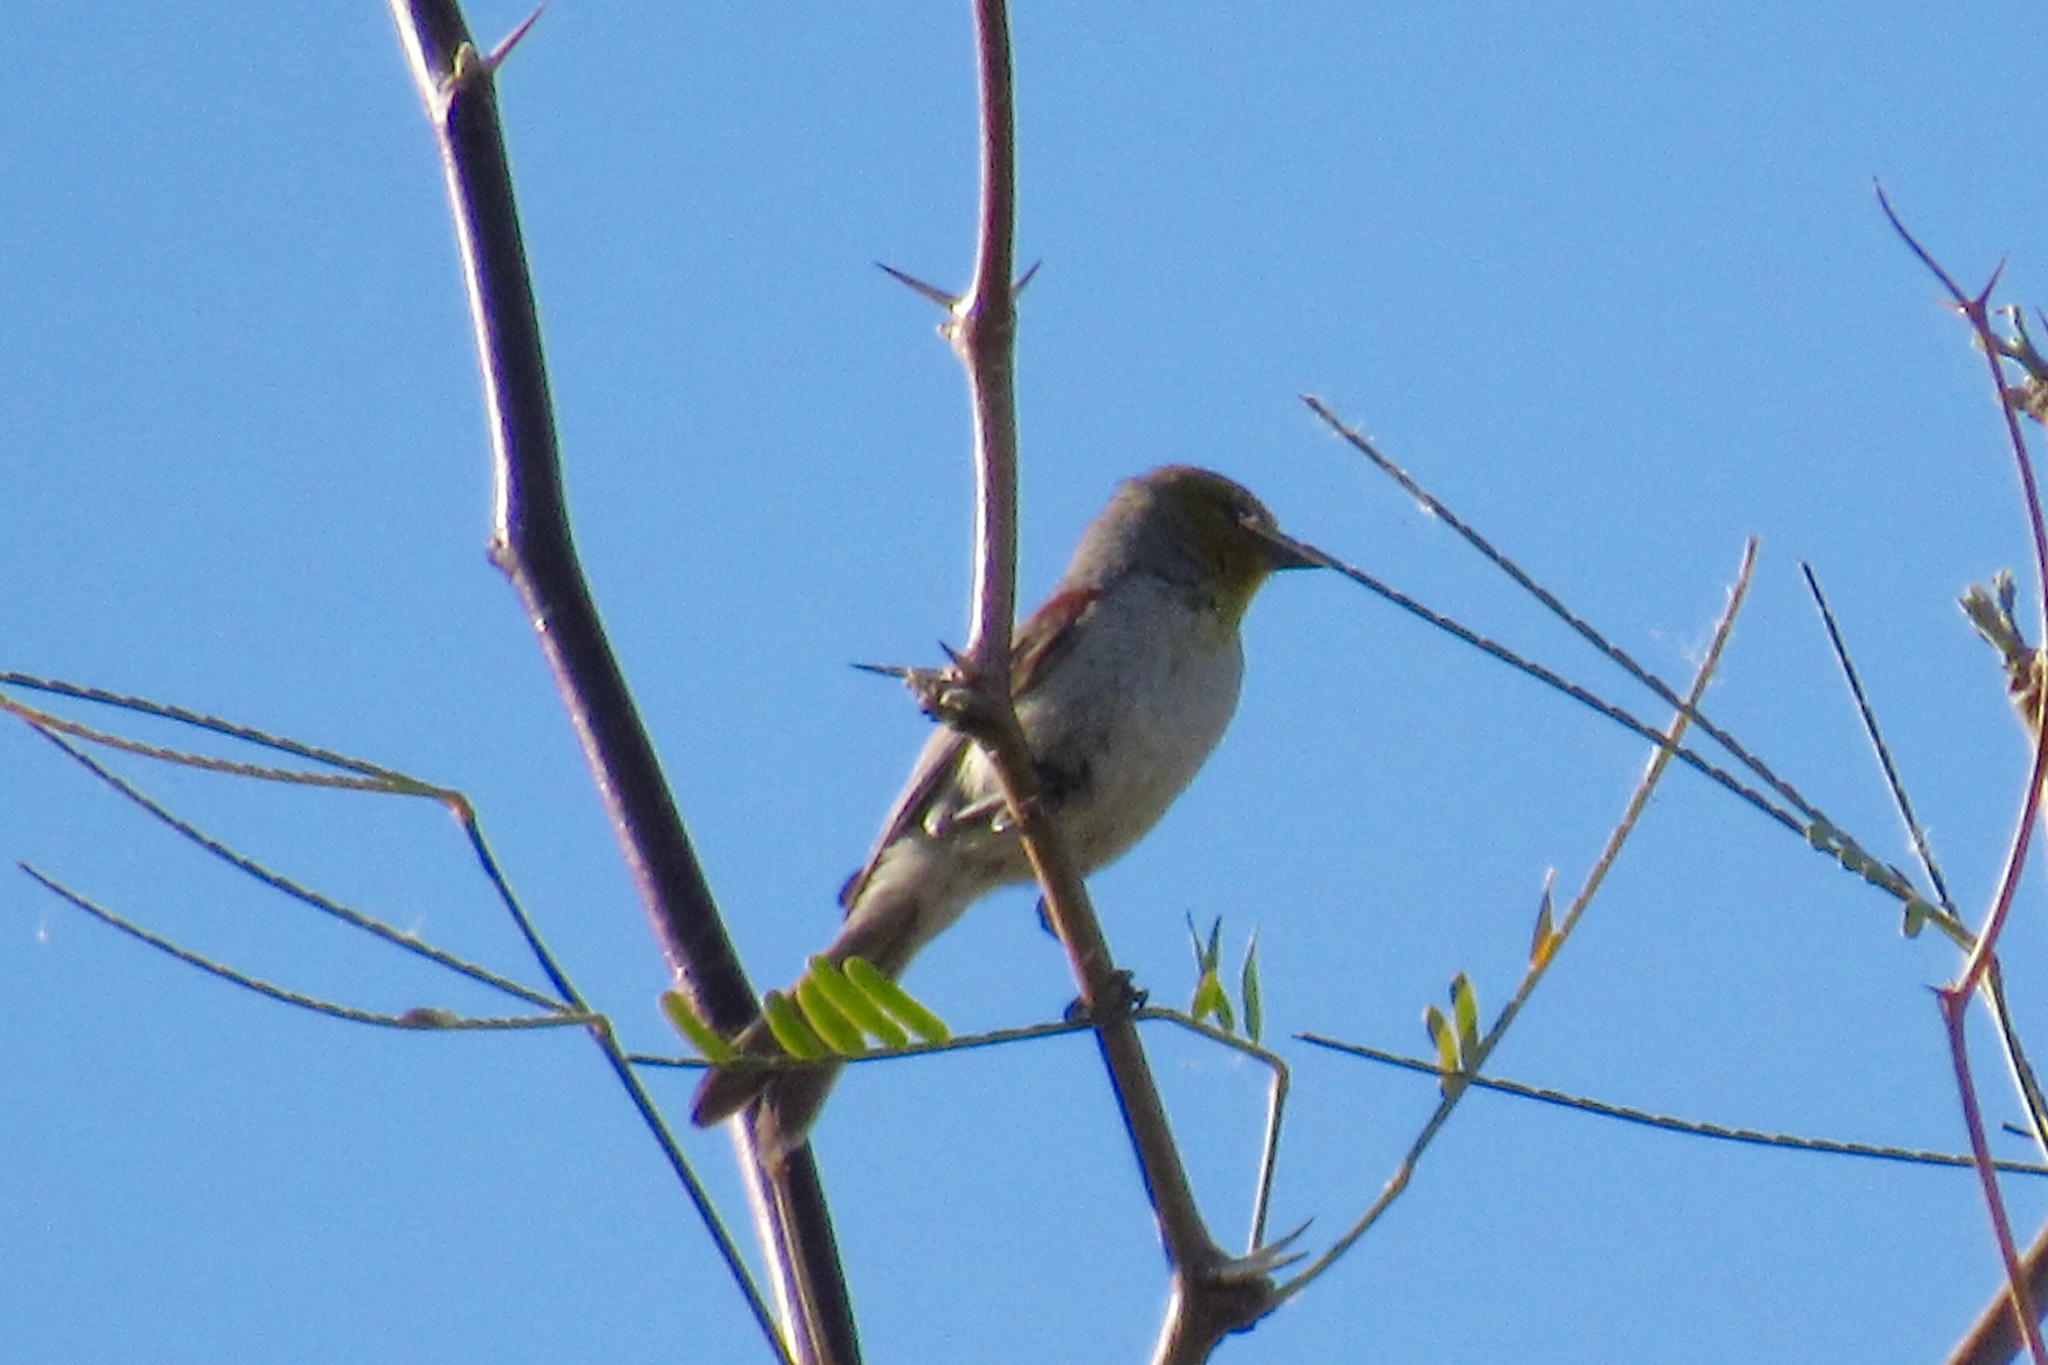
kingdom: Animalia
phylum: Chordata
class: Aves
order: Passeriformes
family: Remizidae
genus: Auriparus
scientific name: Auriparus flaviceps
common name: Verdin
